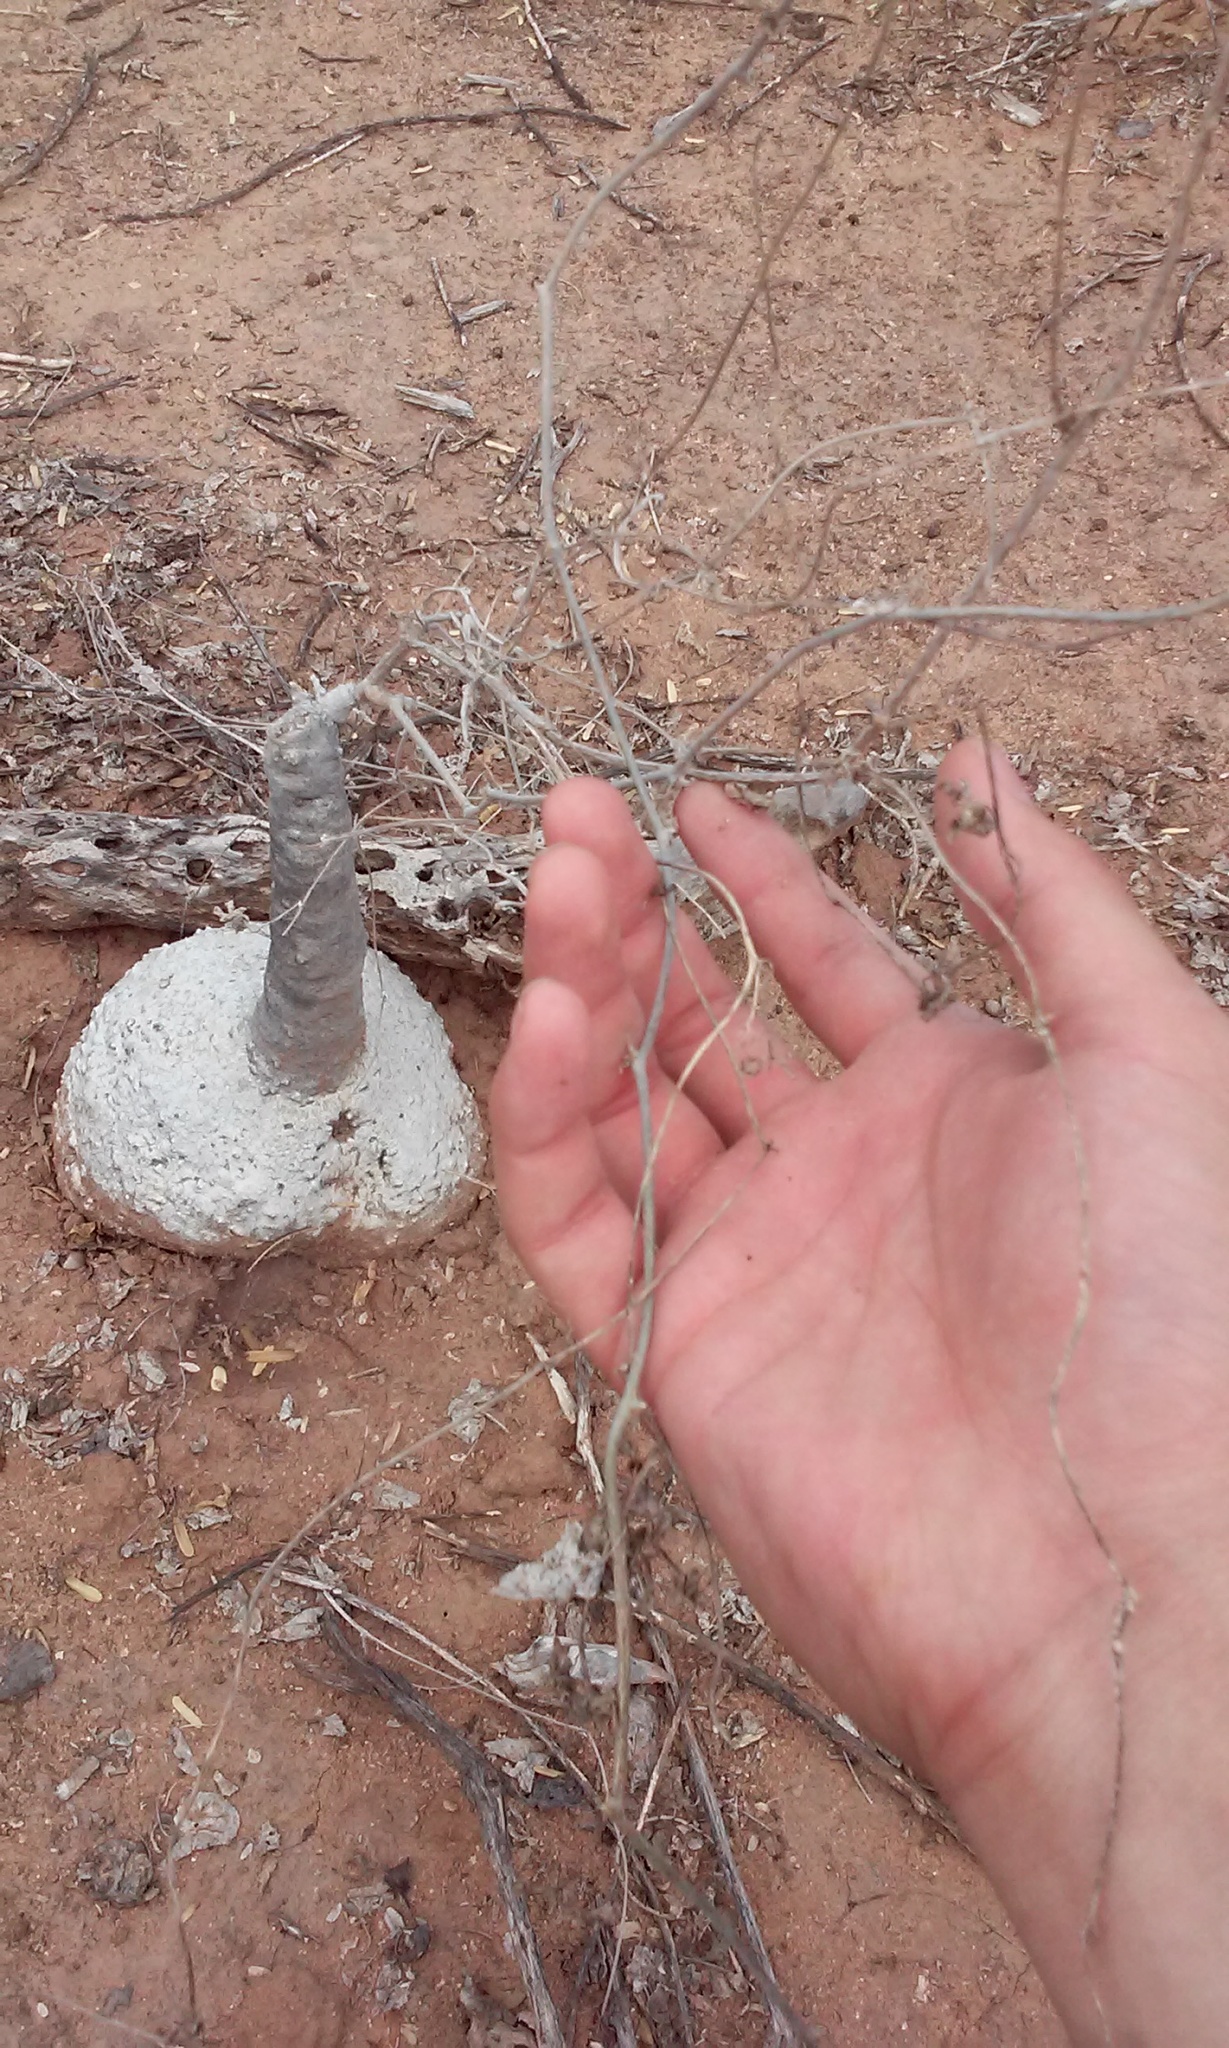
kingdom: Plantae
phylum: Tracheophyta
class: Magnoliopsida
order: Cucurbitales
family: Cucurbitaceae
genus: Ibervillea
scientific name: Ibervillea sonorae
